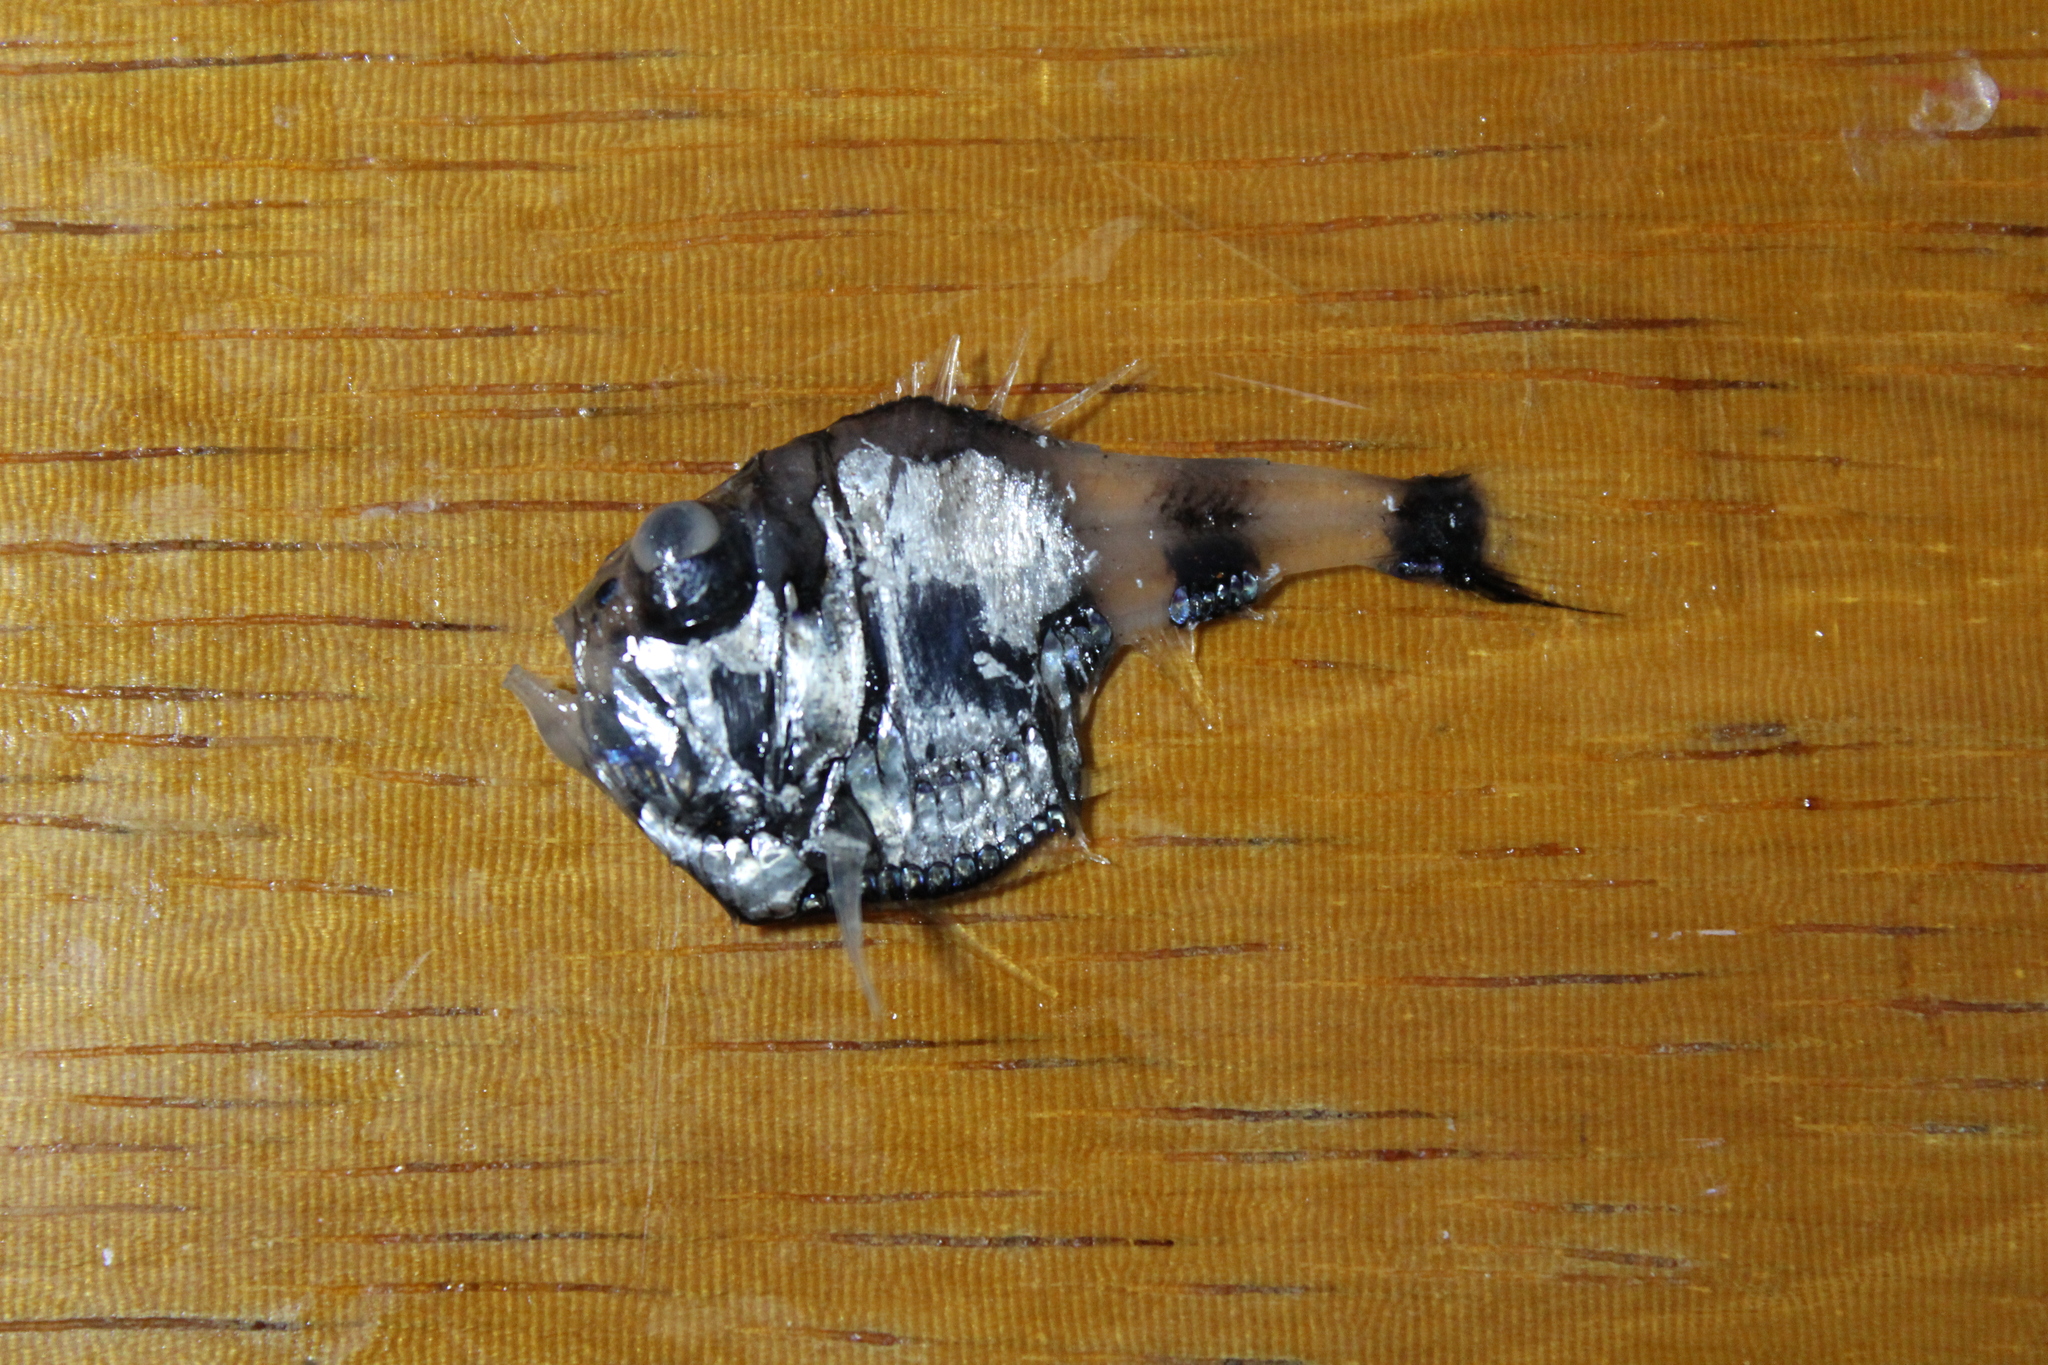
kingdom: Animalia
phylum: Chordata
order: Stomiiformes
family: Sternoptychidae
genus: Argyropelecus
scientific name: Argyropelecus hemigymnus
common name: Axefish
